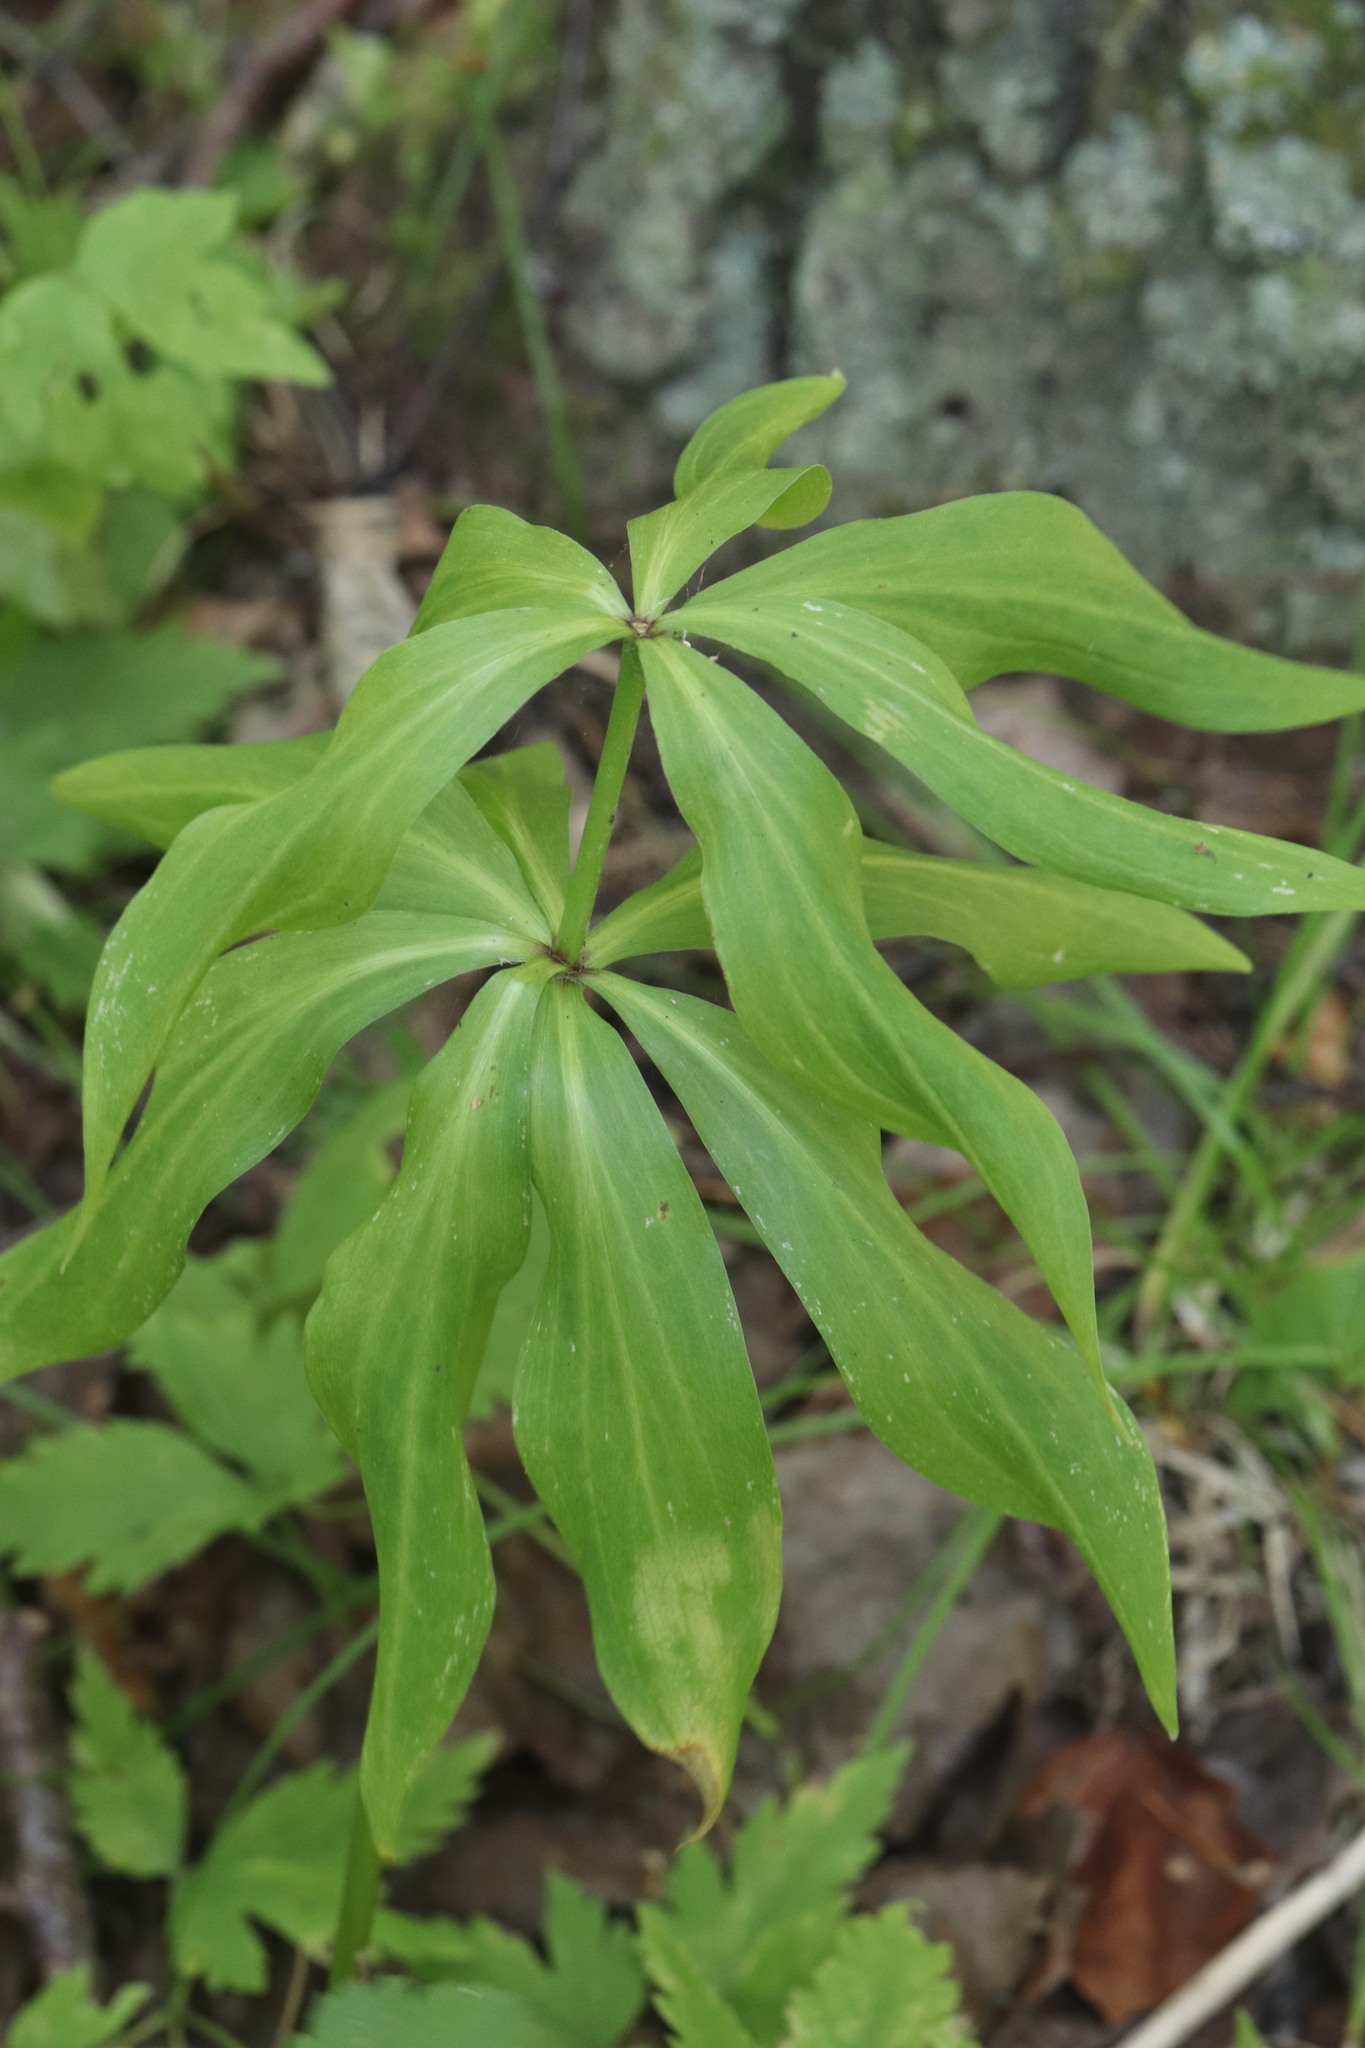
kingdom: Plantae
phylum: Tracheophyta
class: Liliopsida
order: Liliales
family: Liliaceae
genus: Lilium
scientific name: Lilium martagon
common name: Martagon lily
